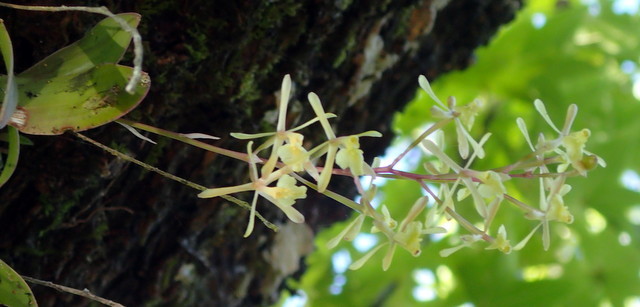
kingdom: Plantae
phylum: Tracheophyta
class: Liliopsida
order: Asparagales
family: Orchidaceae
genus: Epidendrum
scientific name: Epidendrum conopseum
